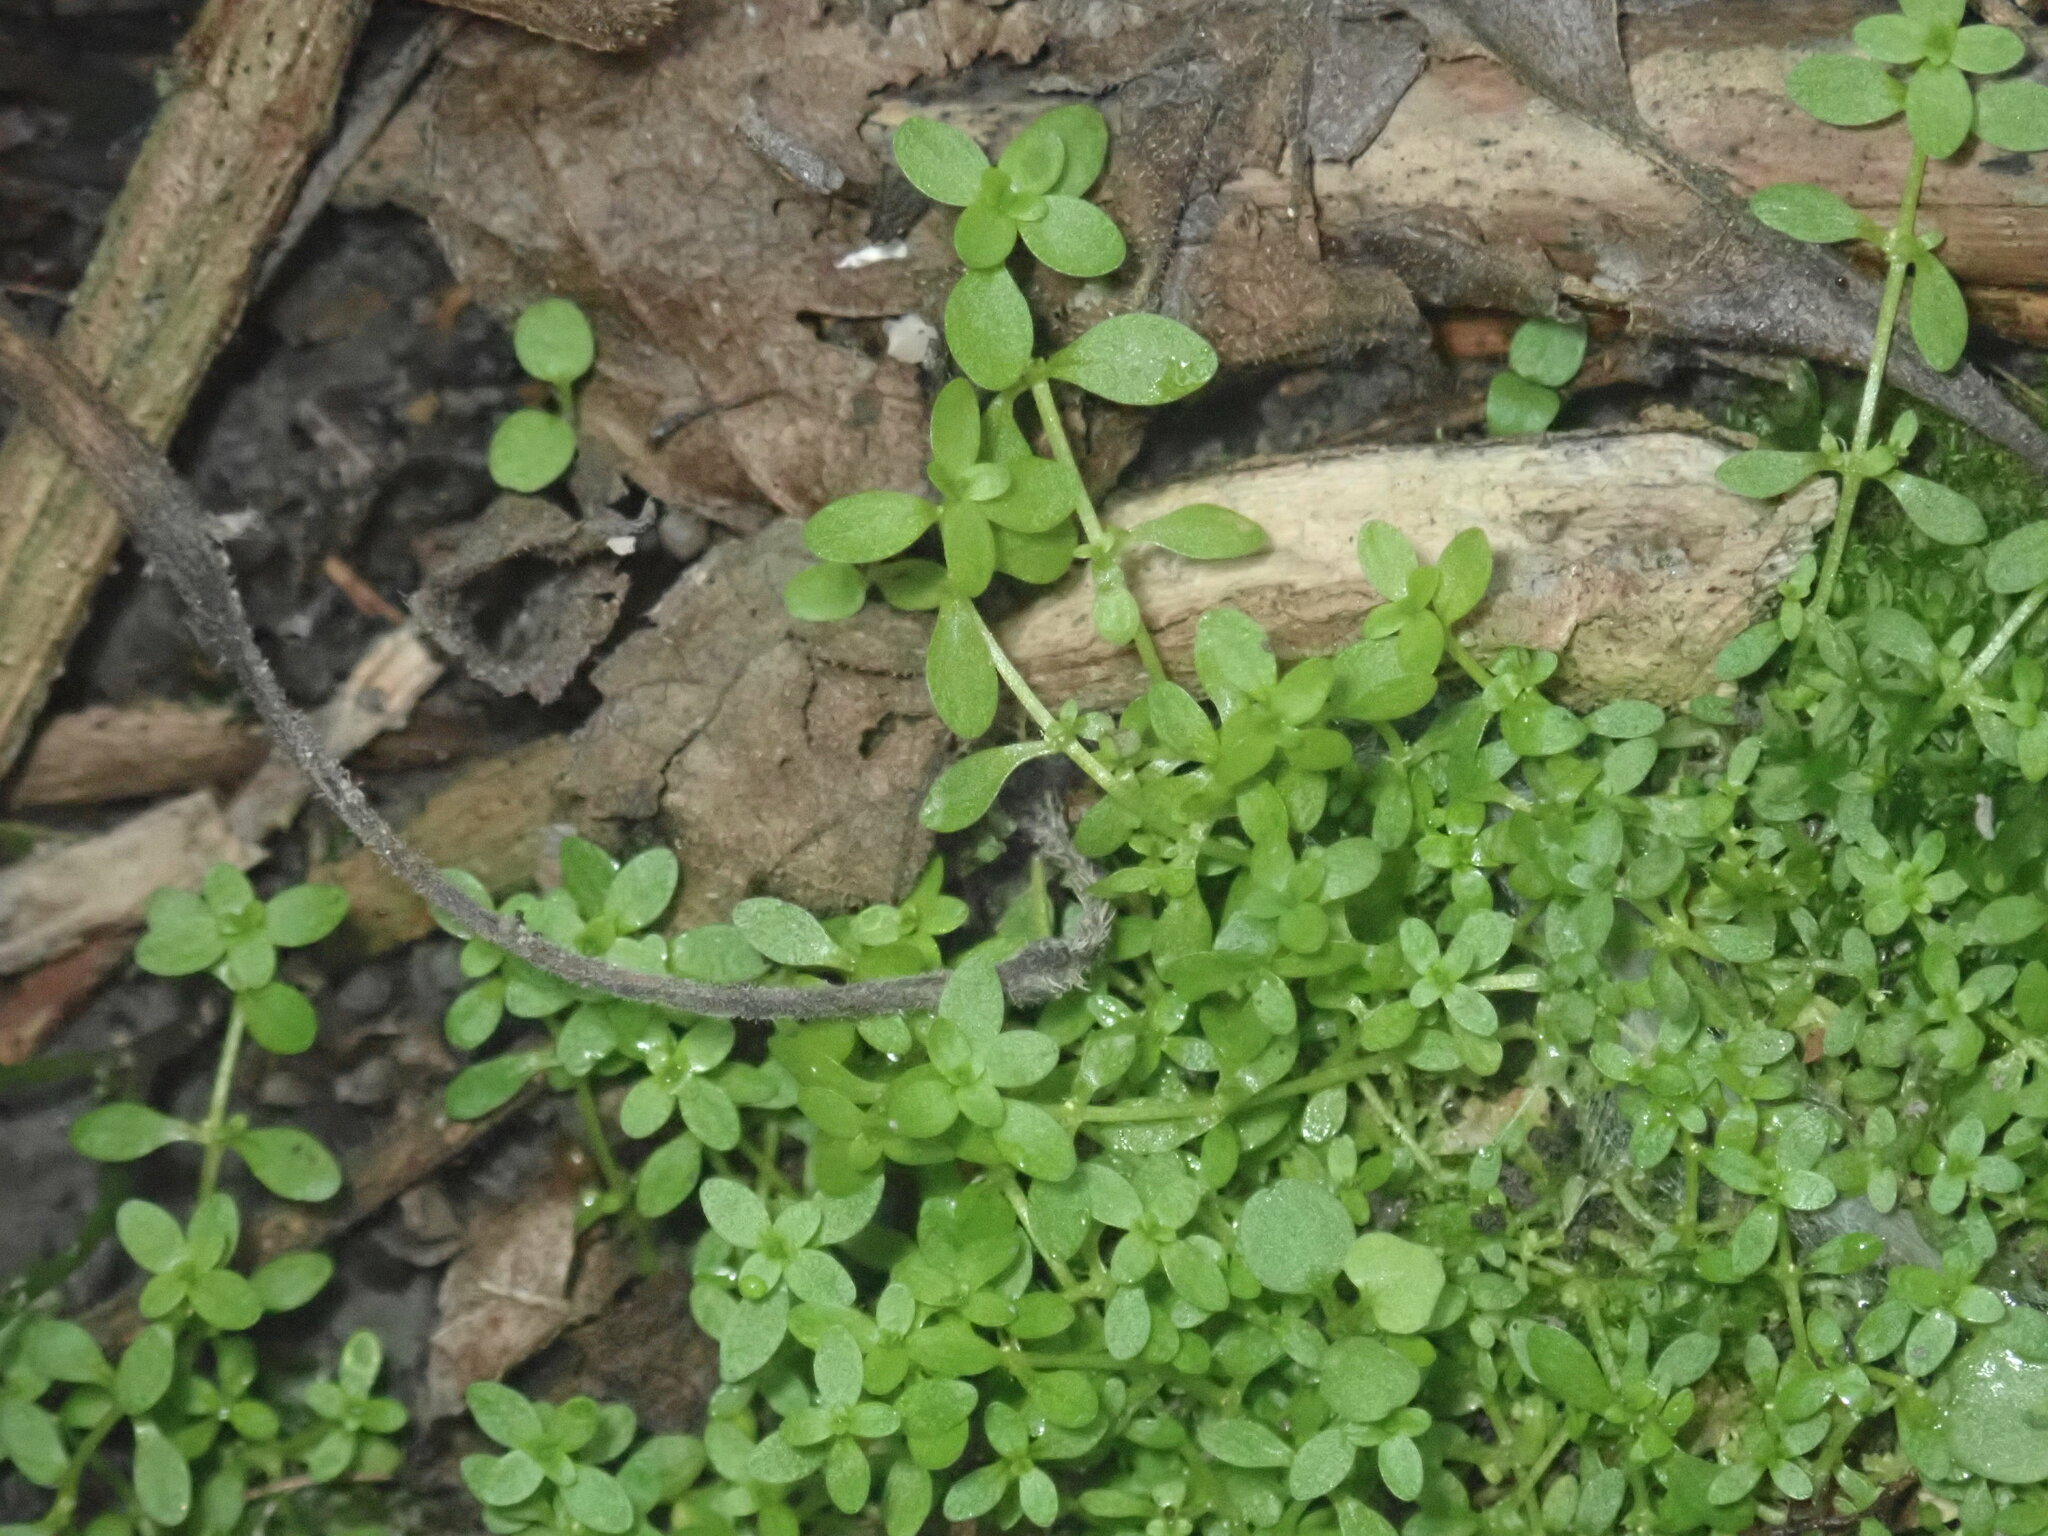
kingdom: Plantae
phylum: Tracheophyta
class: Magnoliopsida
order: Lamiales
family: Plantaginaceae
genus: Callitriche
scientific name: Callitriche stagnalis
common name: Common water-starwort
